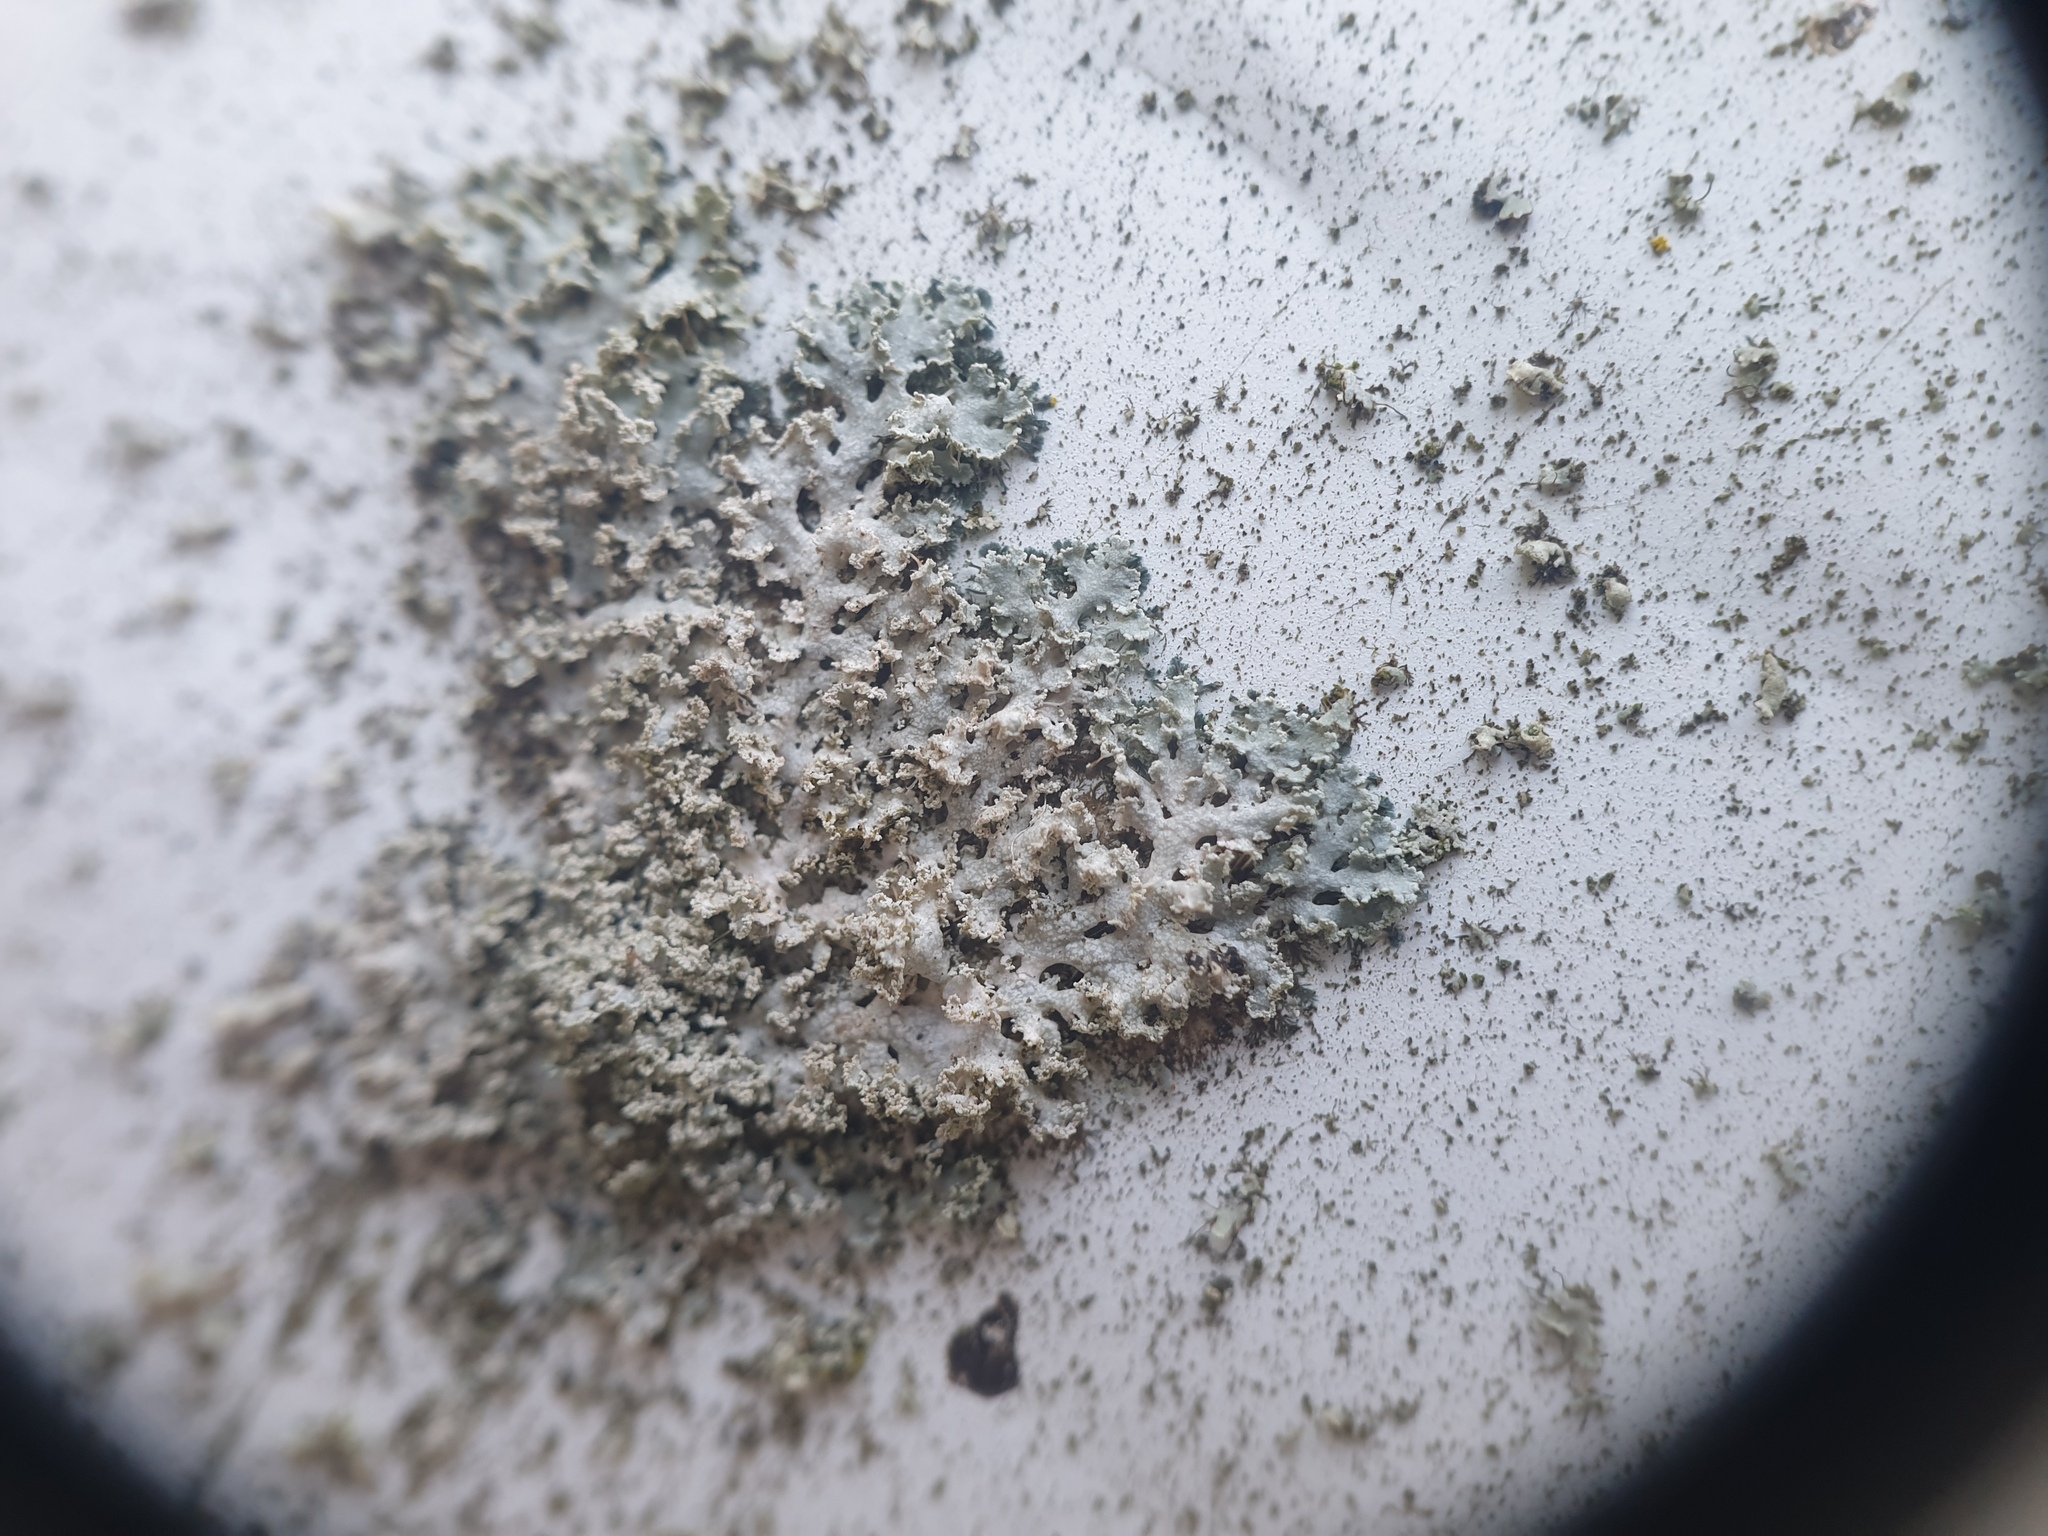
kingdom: Fungi
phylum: Ascomycota
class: Lecanoromycetes
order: Caliciales
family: Physciaceae
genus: Physcia
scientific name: Physcia millegrana
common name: Rosette lichen
